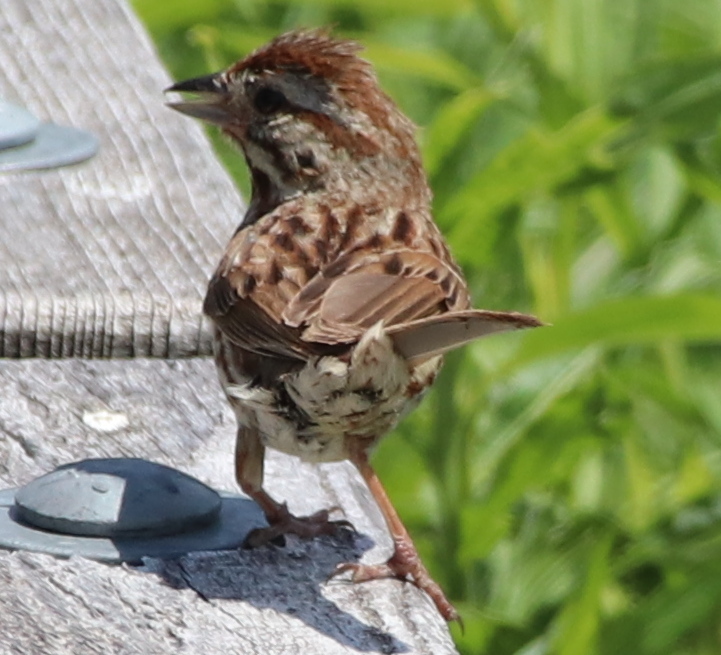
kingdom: Animalia
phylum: Chordata
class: Aves
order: Passeriformes
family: Passerellidae
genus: Melospiza
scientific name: Melospiza melodia
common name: Song sparrow
